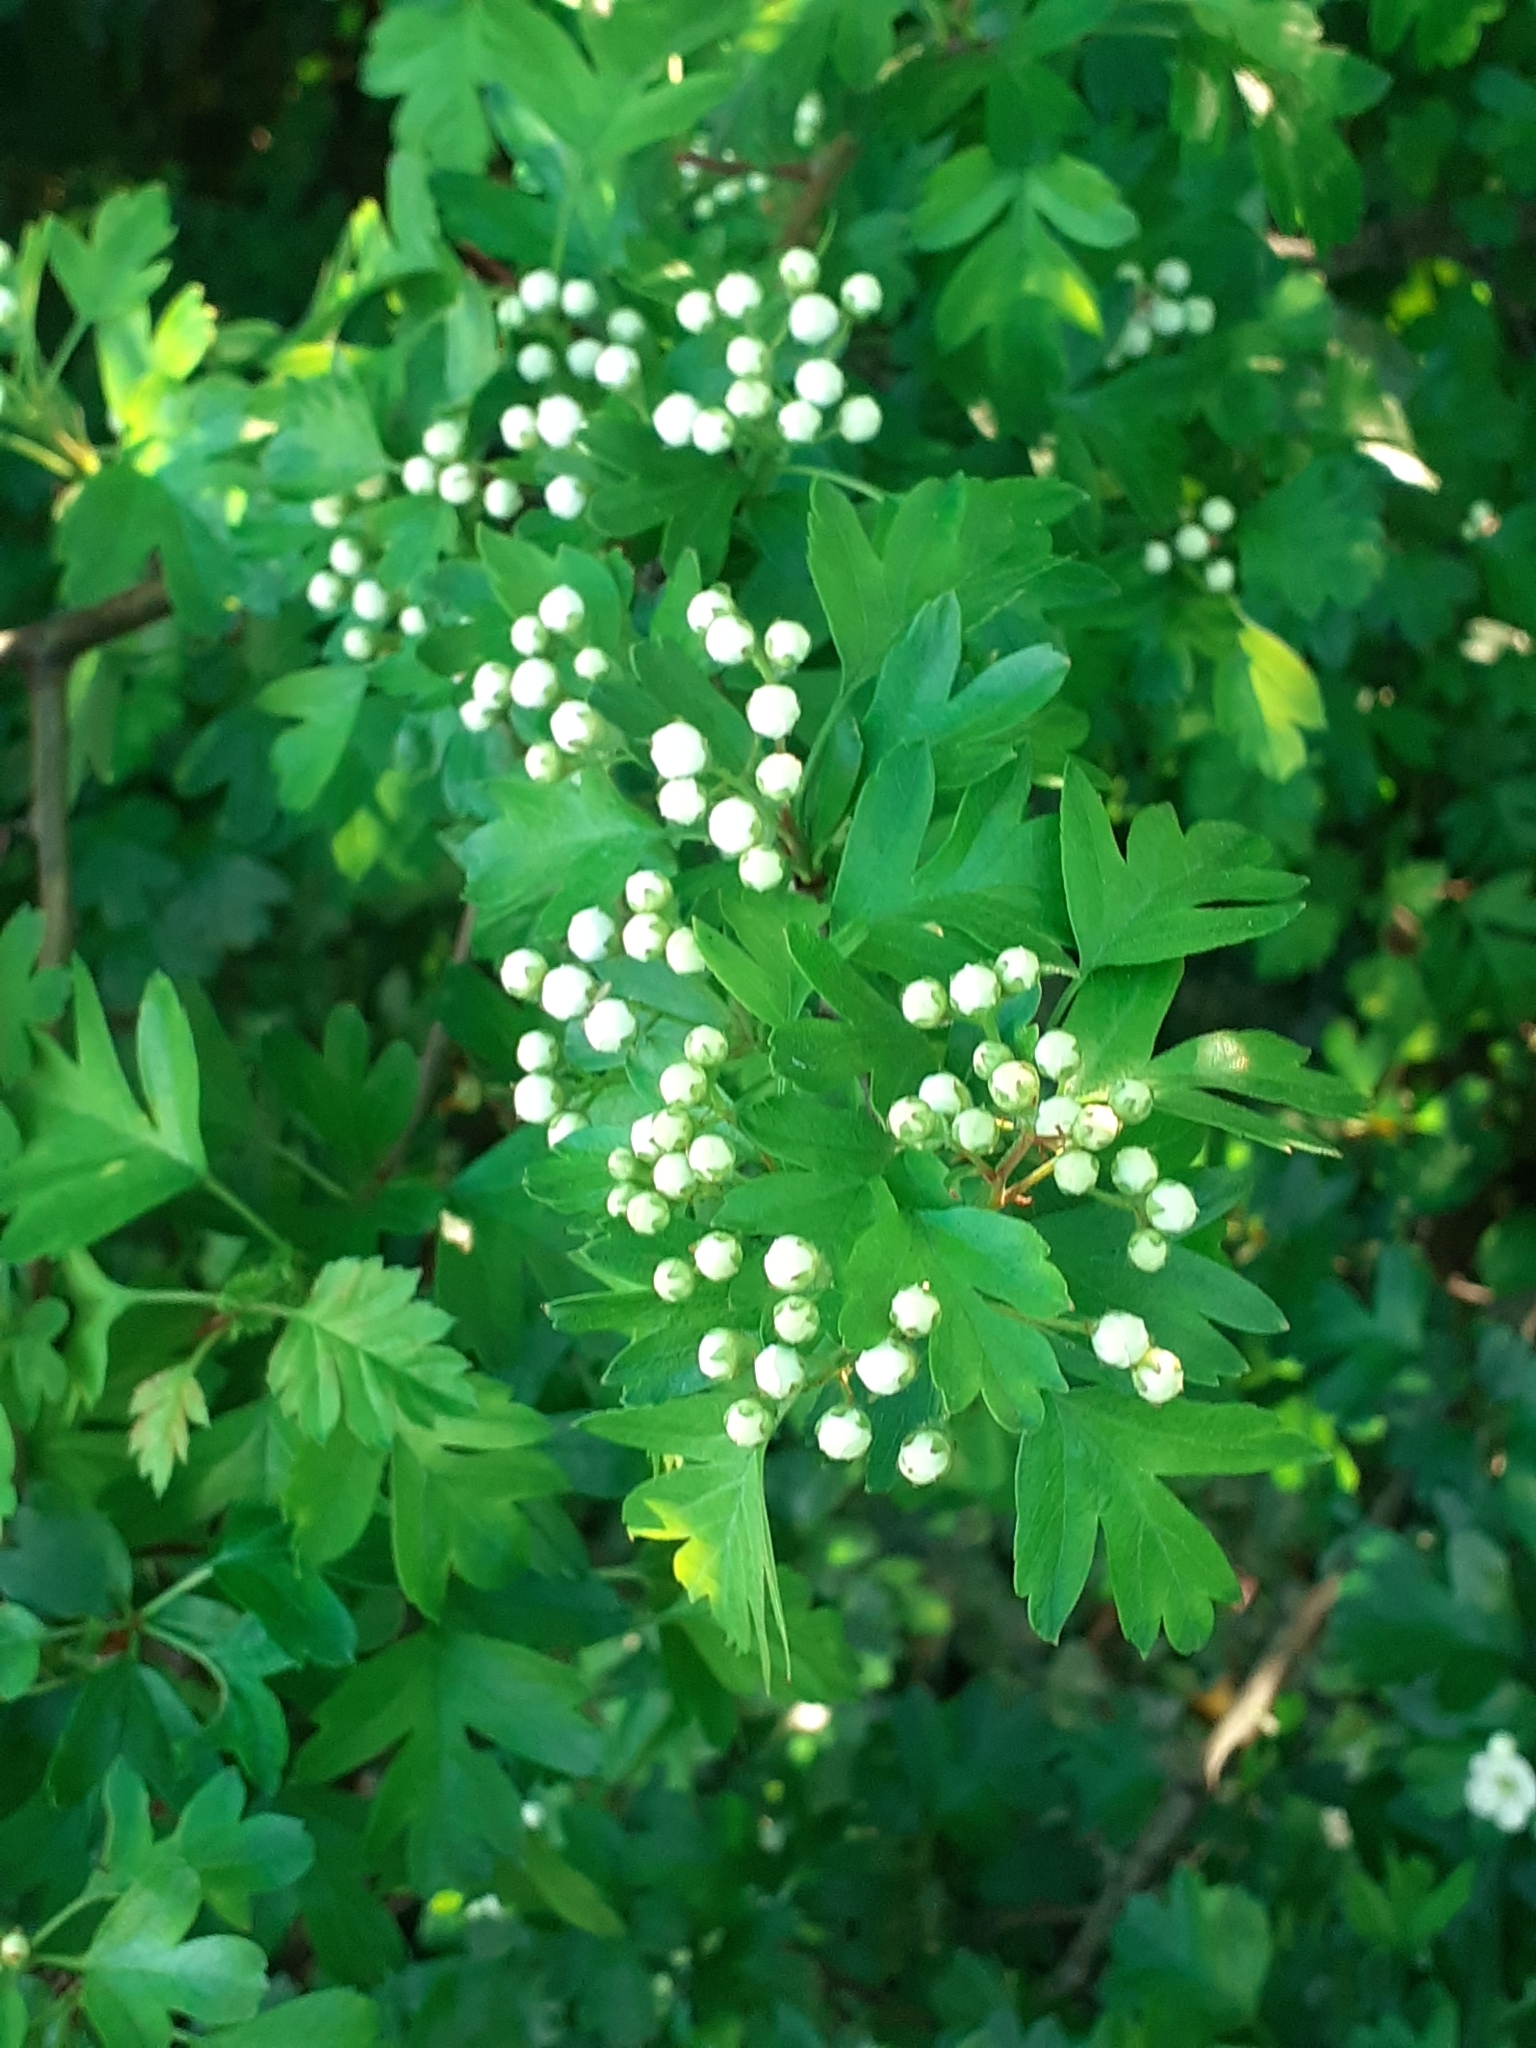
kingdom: Plantae
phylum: Tracheophyta
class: Magnoliopsida
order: Rosales
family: Rosaceae
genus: Crataegus
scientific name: Crataegus monogyna
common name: Hawthorn
